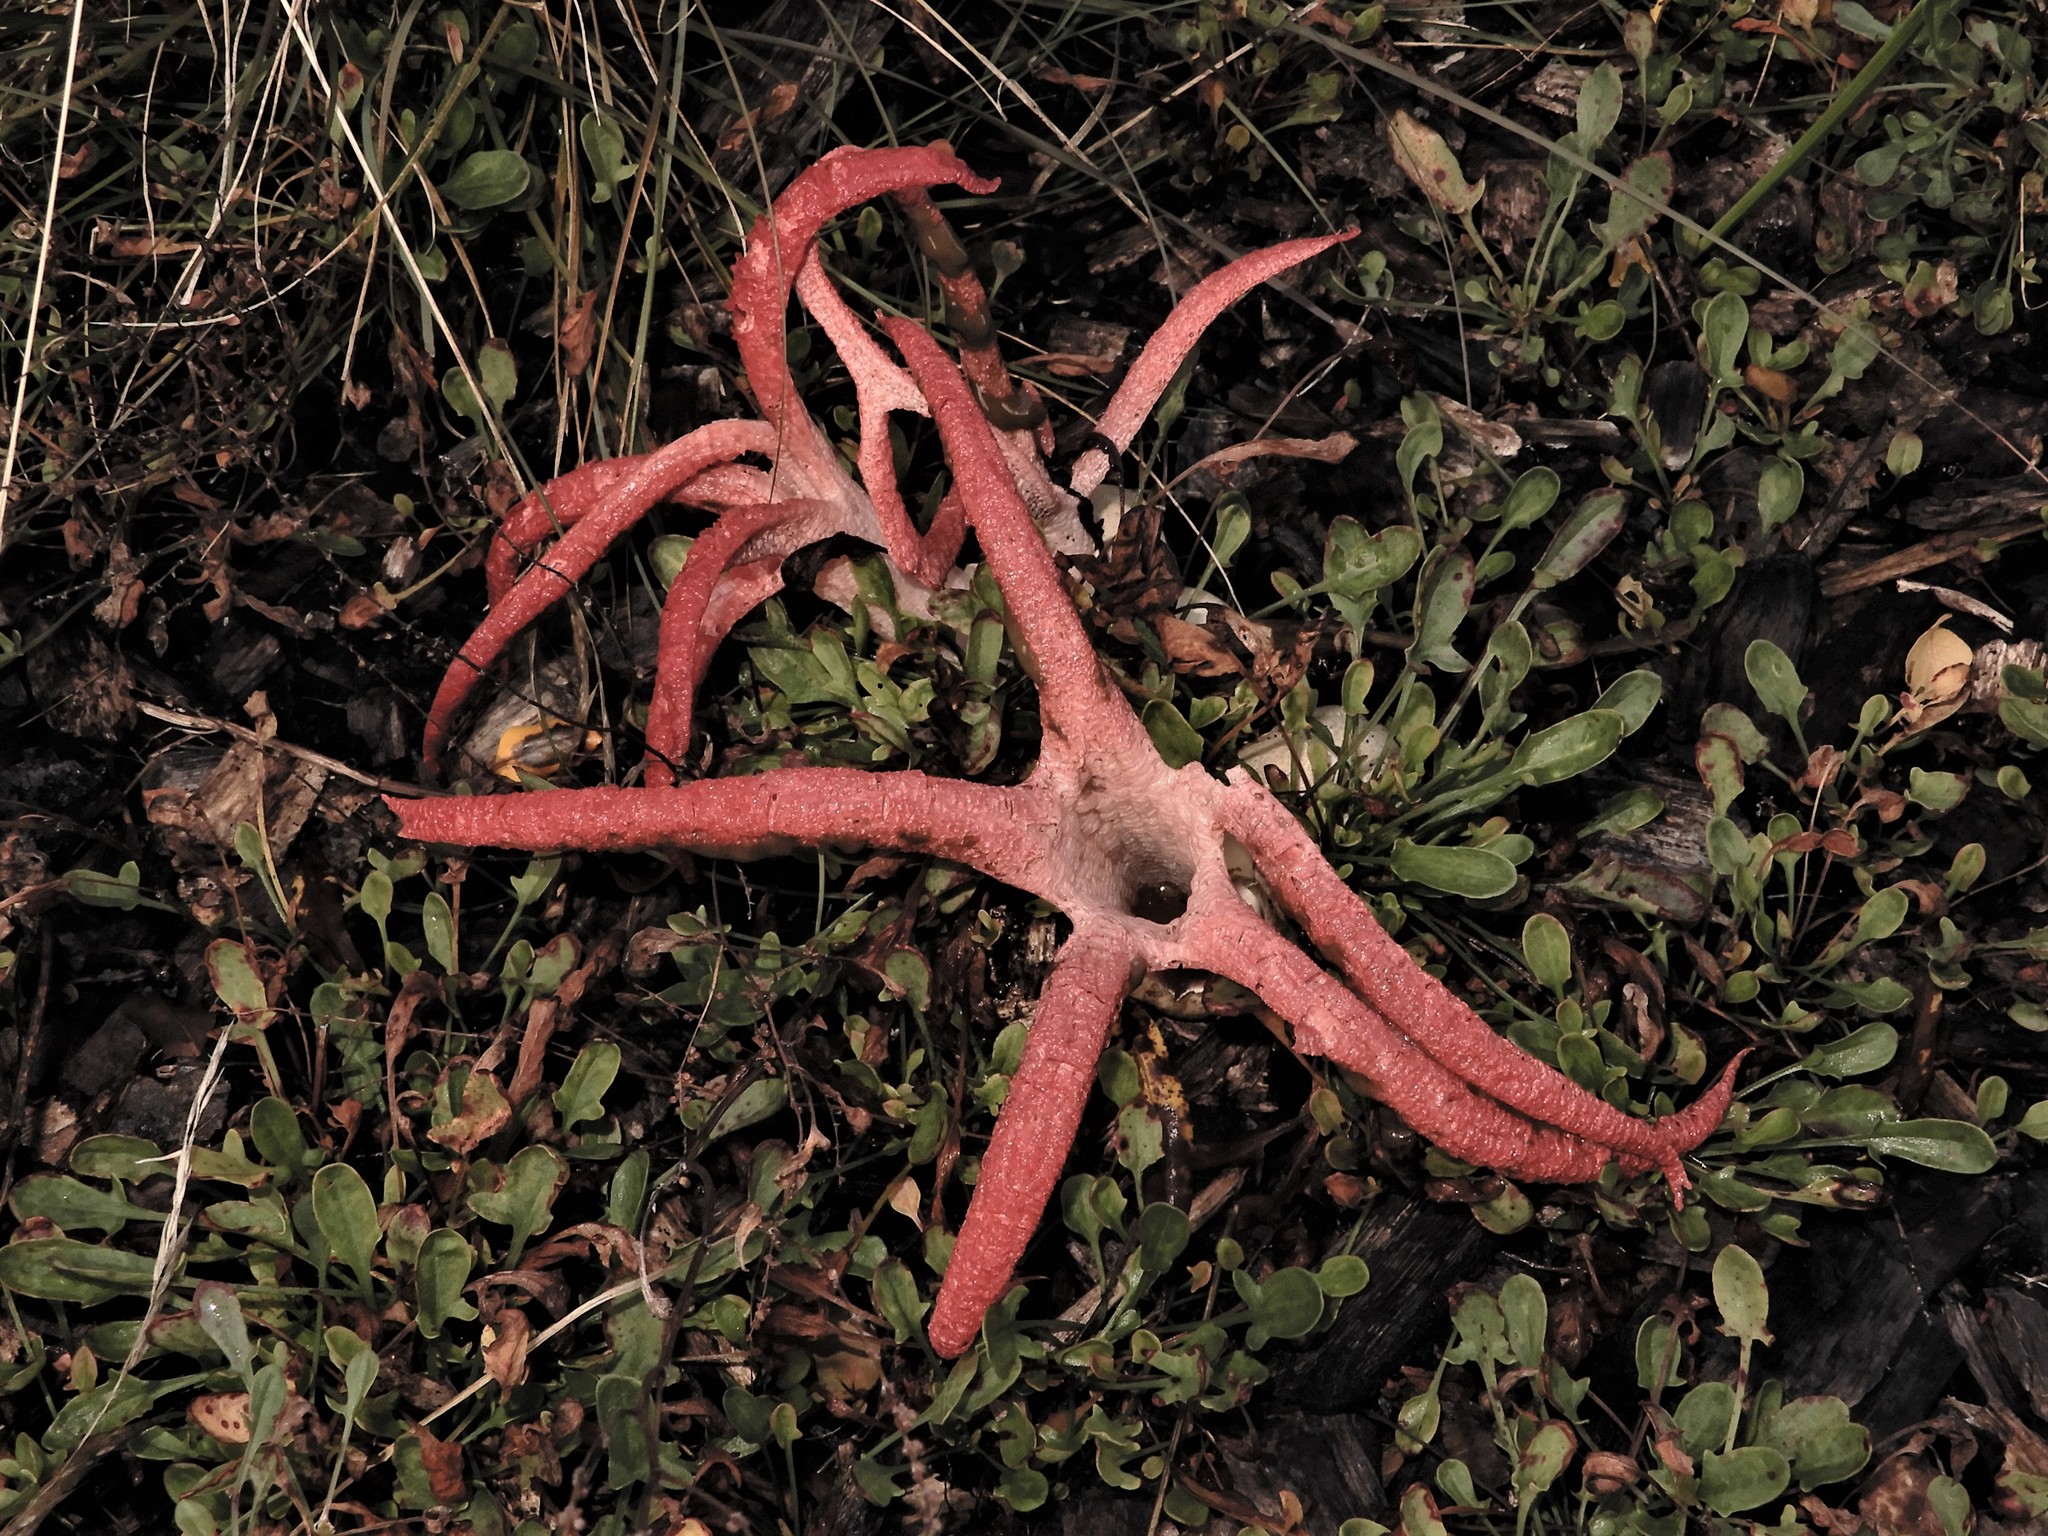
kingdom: Fungi
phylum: Basidiomycota
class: Agaricomycetes
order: Phallales
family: Phallaceae
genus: Clathrus
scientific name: Clathrus archeri
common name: Devil's fingers
